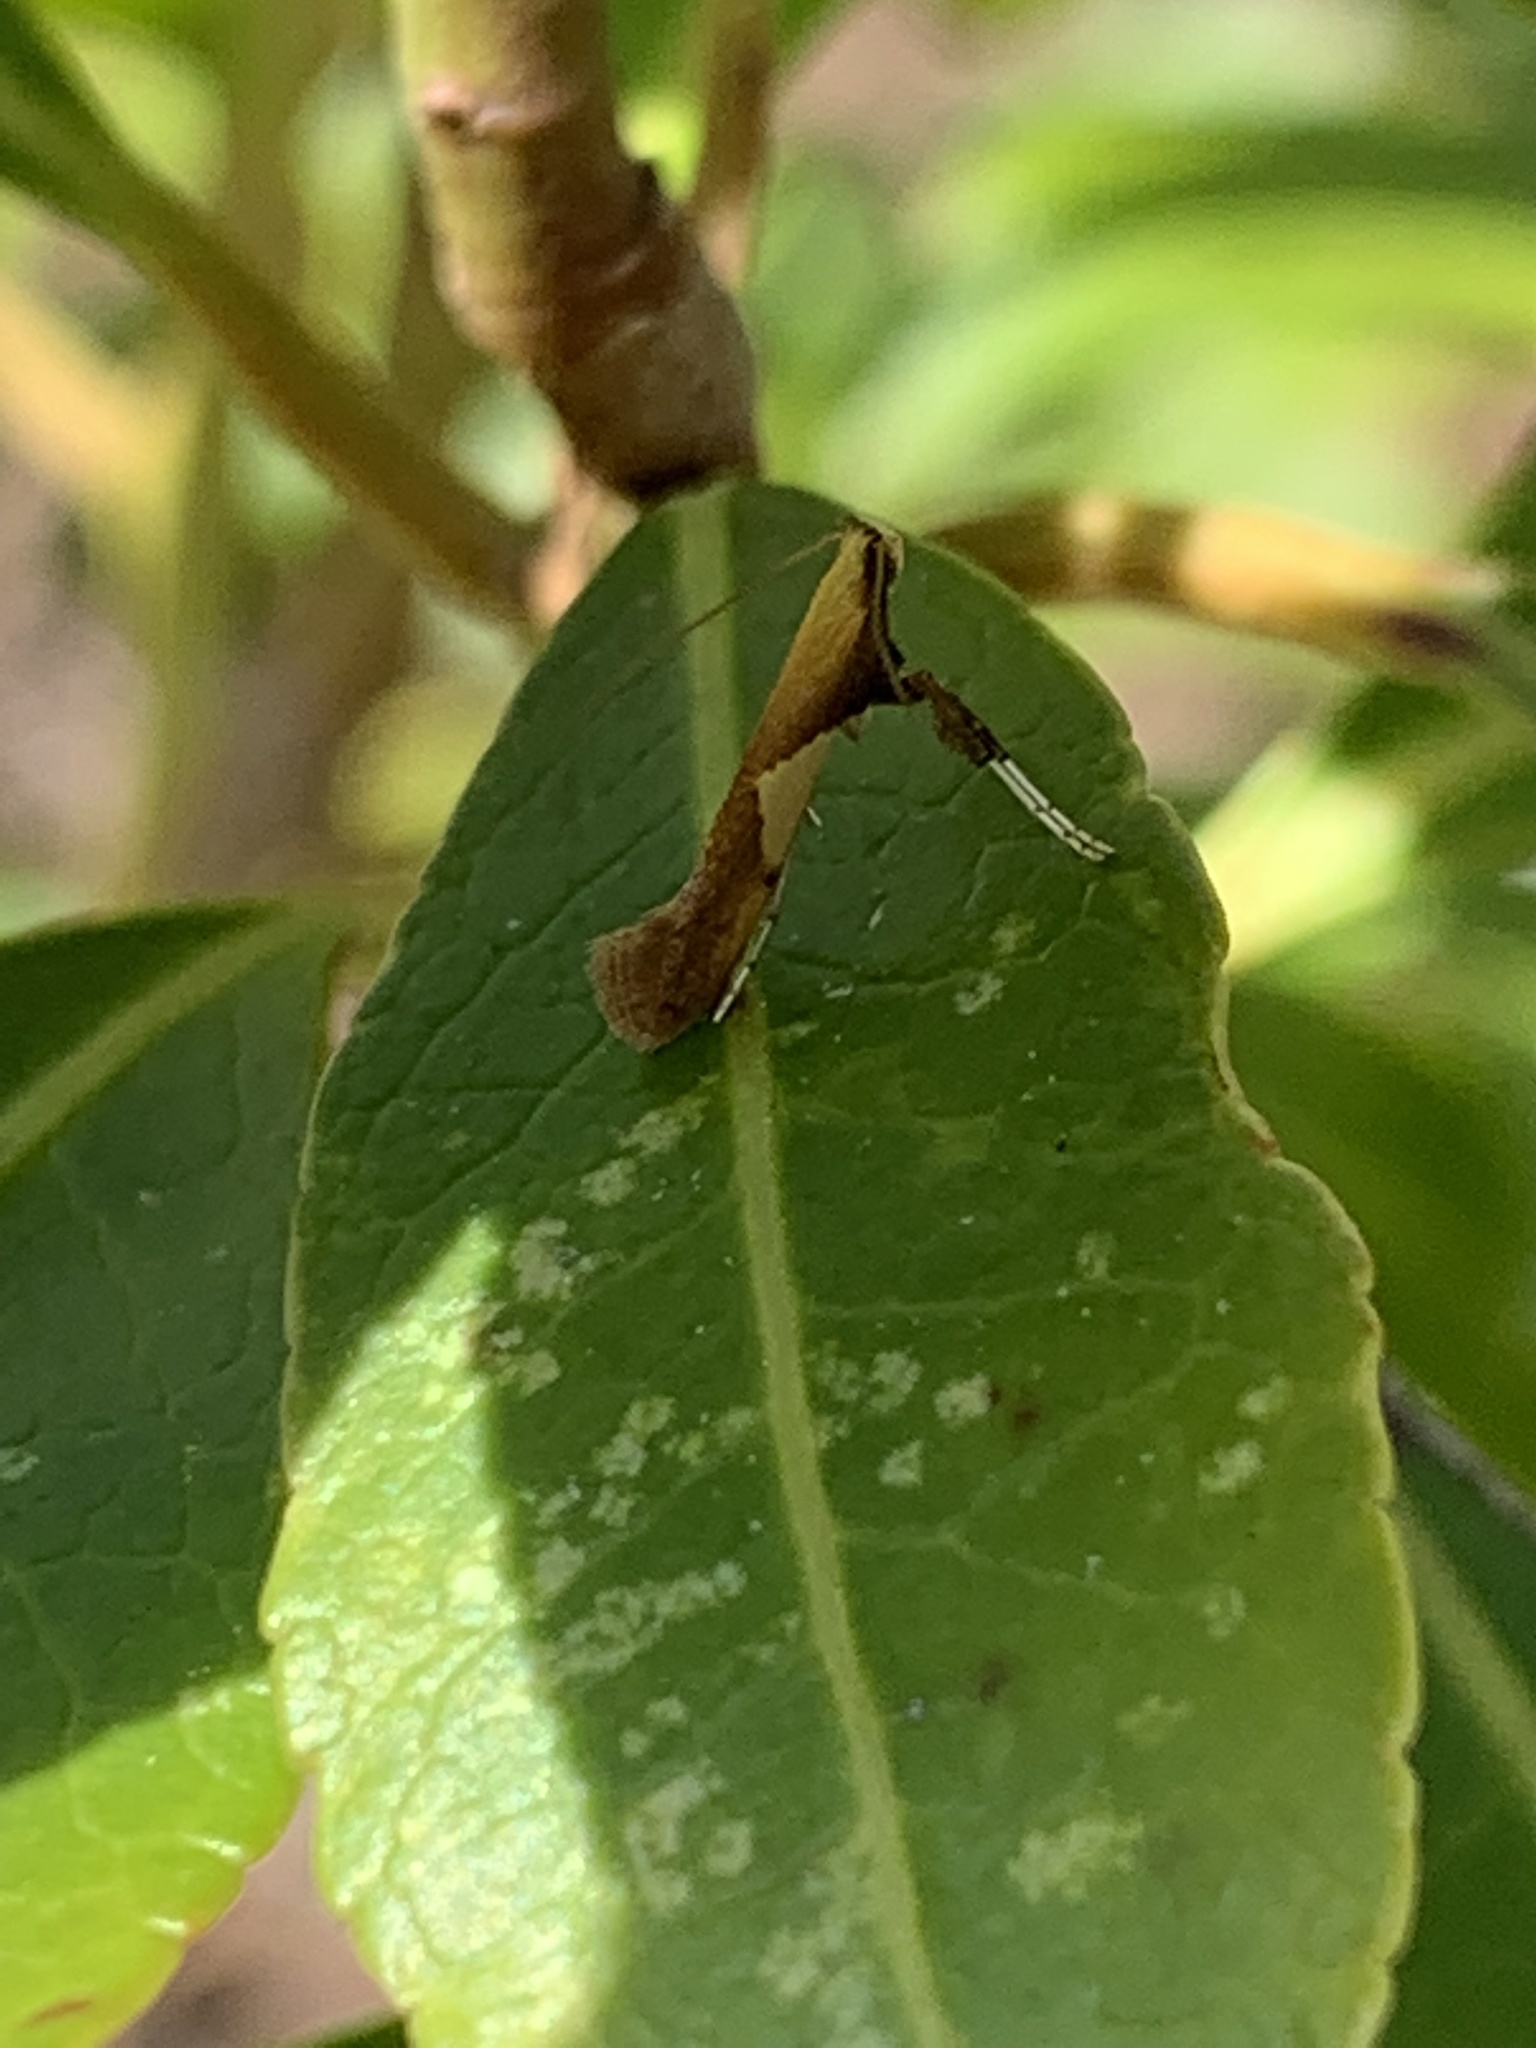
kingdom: Animalia
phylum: Arthropoda
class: Insecta
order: Lepidoptera
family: Gracillariidae
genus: Caloptilia
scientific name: Caloptilia packardella
